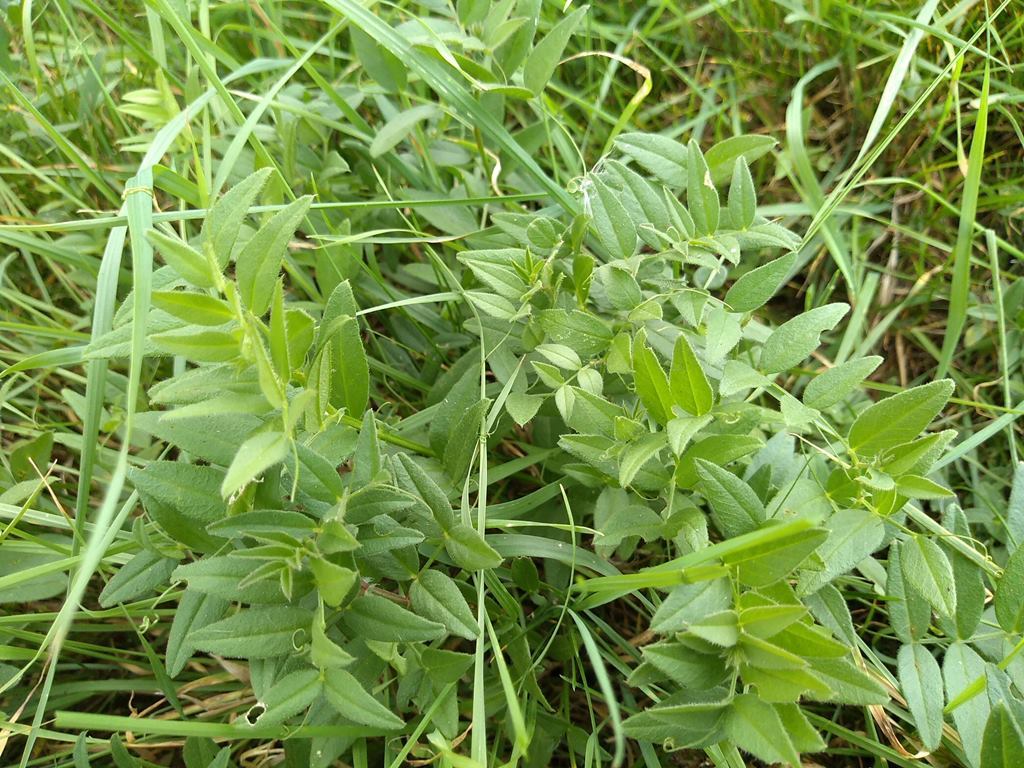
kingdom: Plantae
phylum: Tracheophyta
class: Magnoliopsida
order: Fabales
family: Fabaceae
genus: Vicia
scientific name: Vicia sepium
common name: Bush vetch
